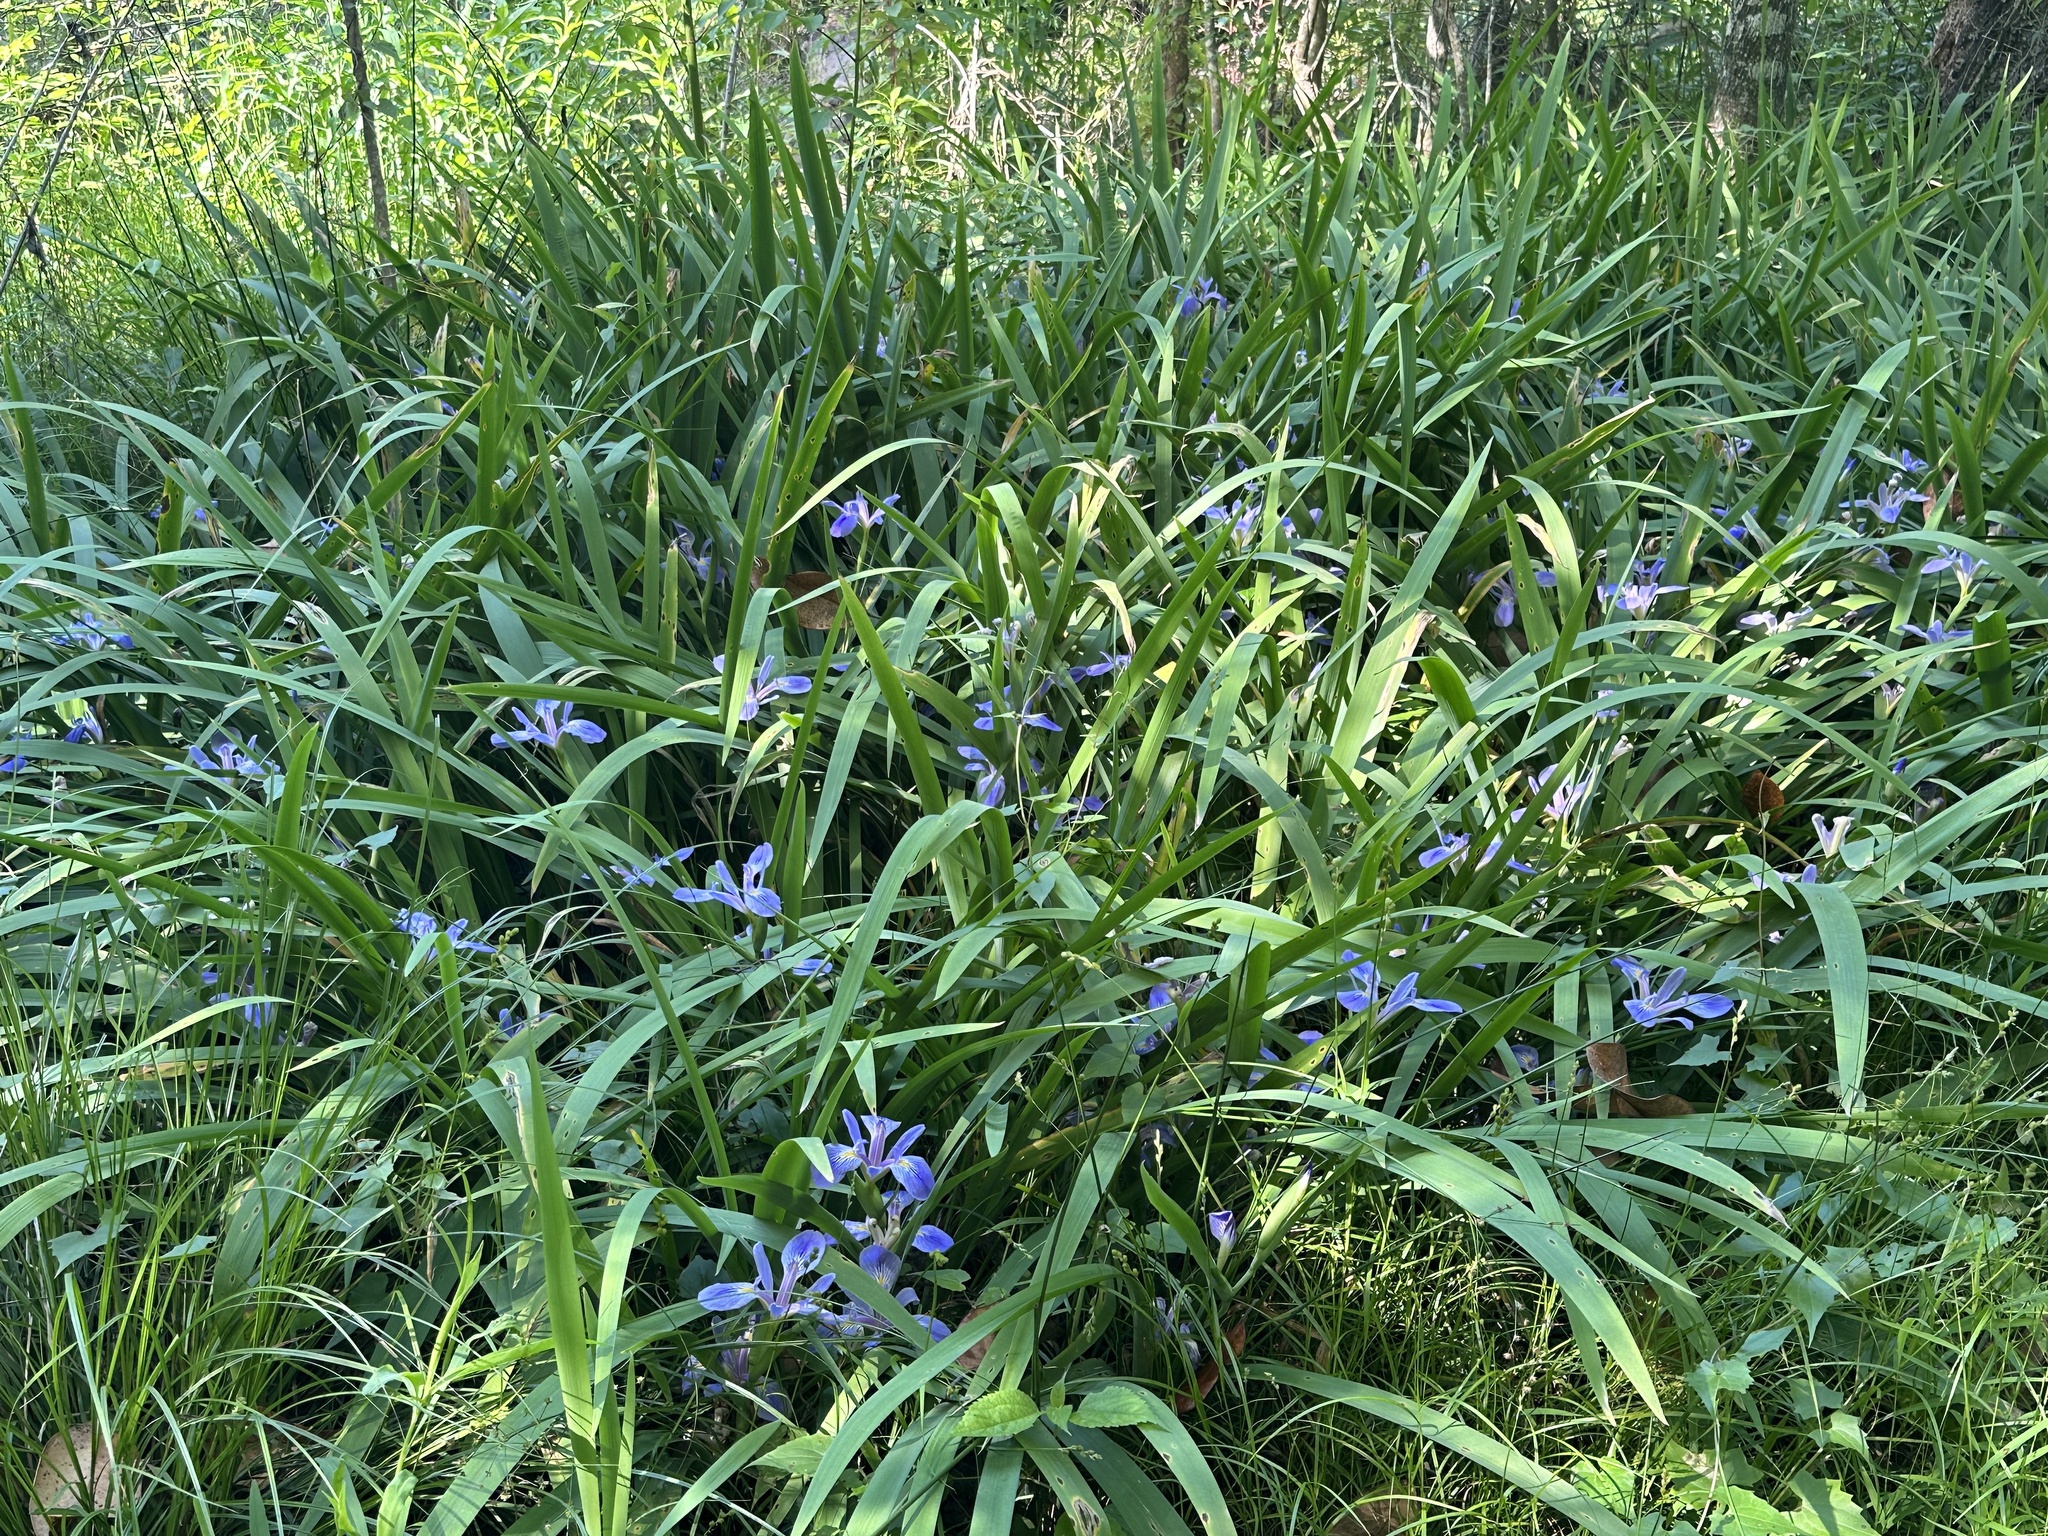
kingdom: Plantae
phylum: Tracheophyta
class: Liliopsida
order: Asparagales
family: Iridaceae
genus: Iris
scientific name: Iris brevicaulis
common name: Zigzag iris
